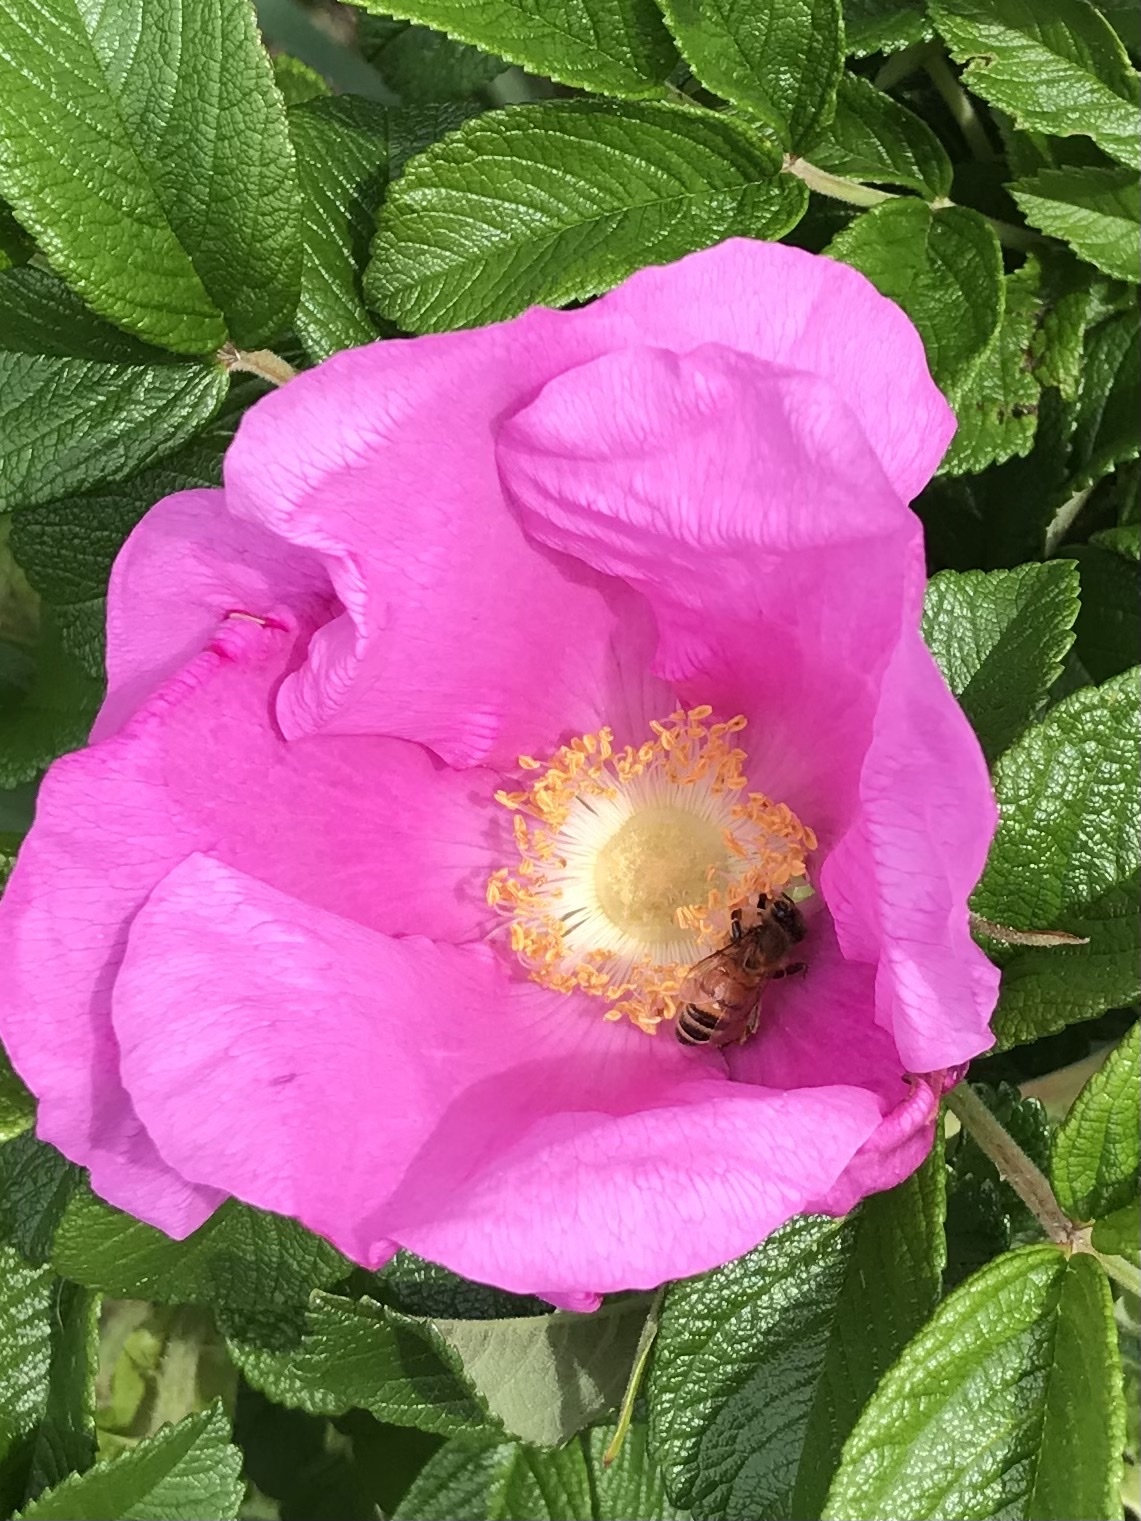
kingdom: Animalia
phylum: Arthropoda
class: Insecta
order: Hymenoptera
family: Apidae
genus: Apis
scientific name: Apis mellifera
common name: Honey bee
